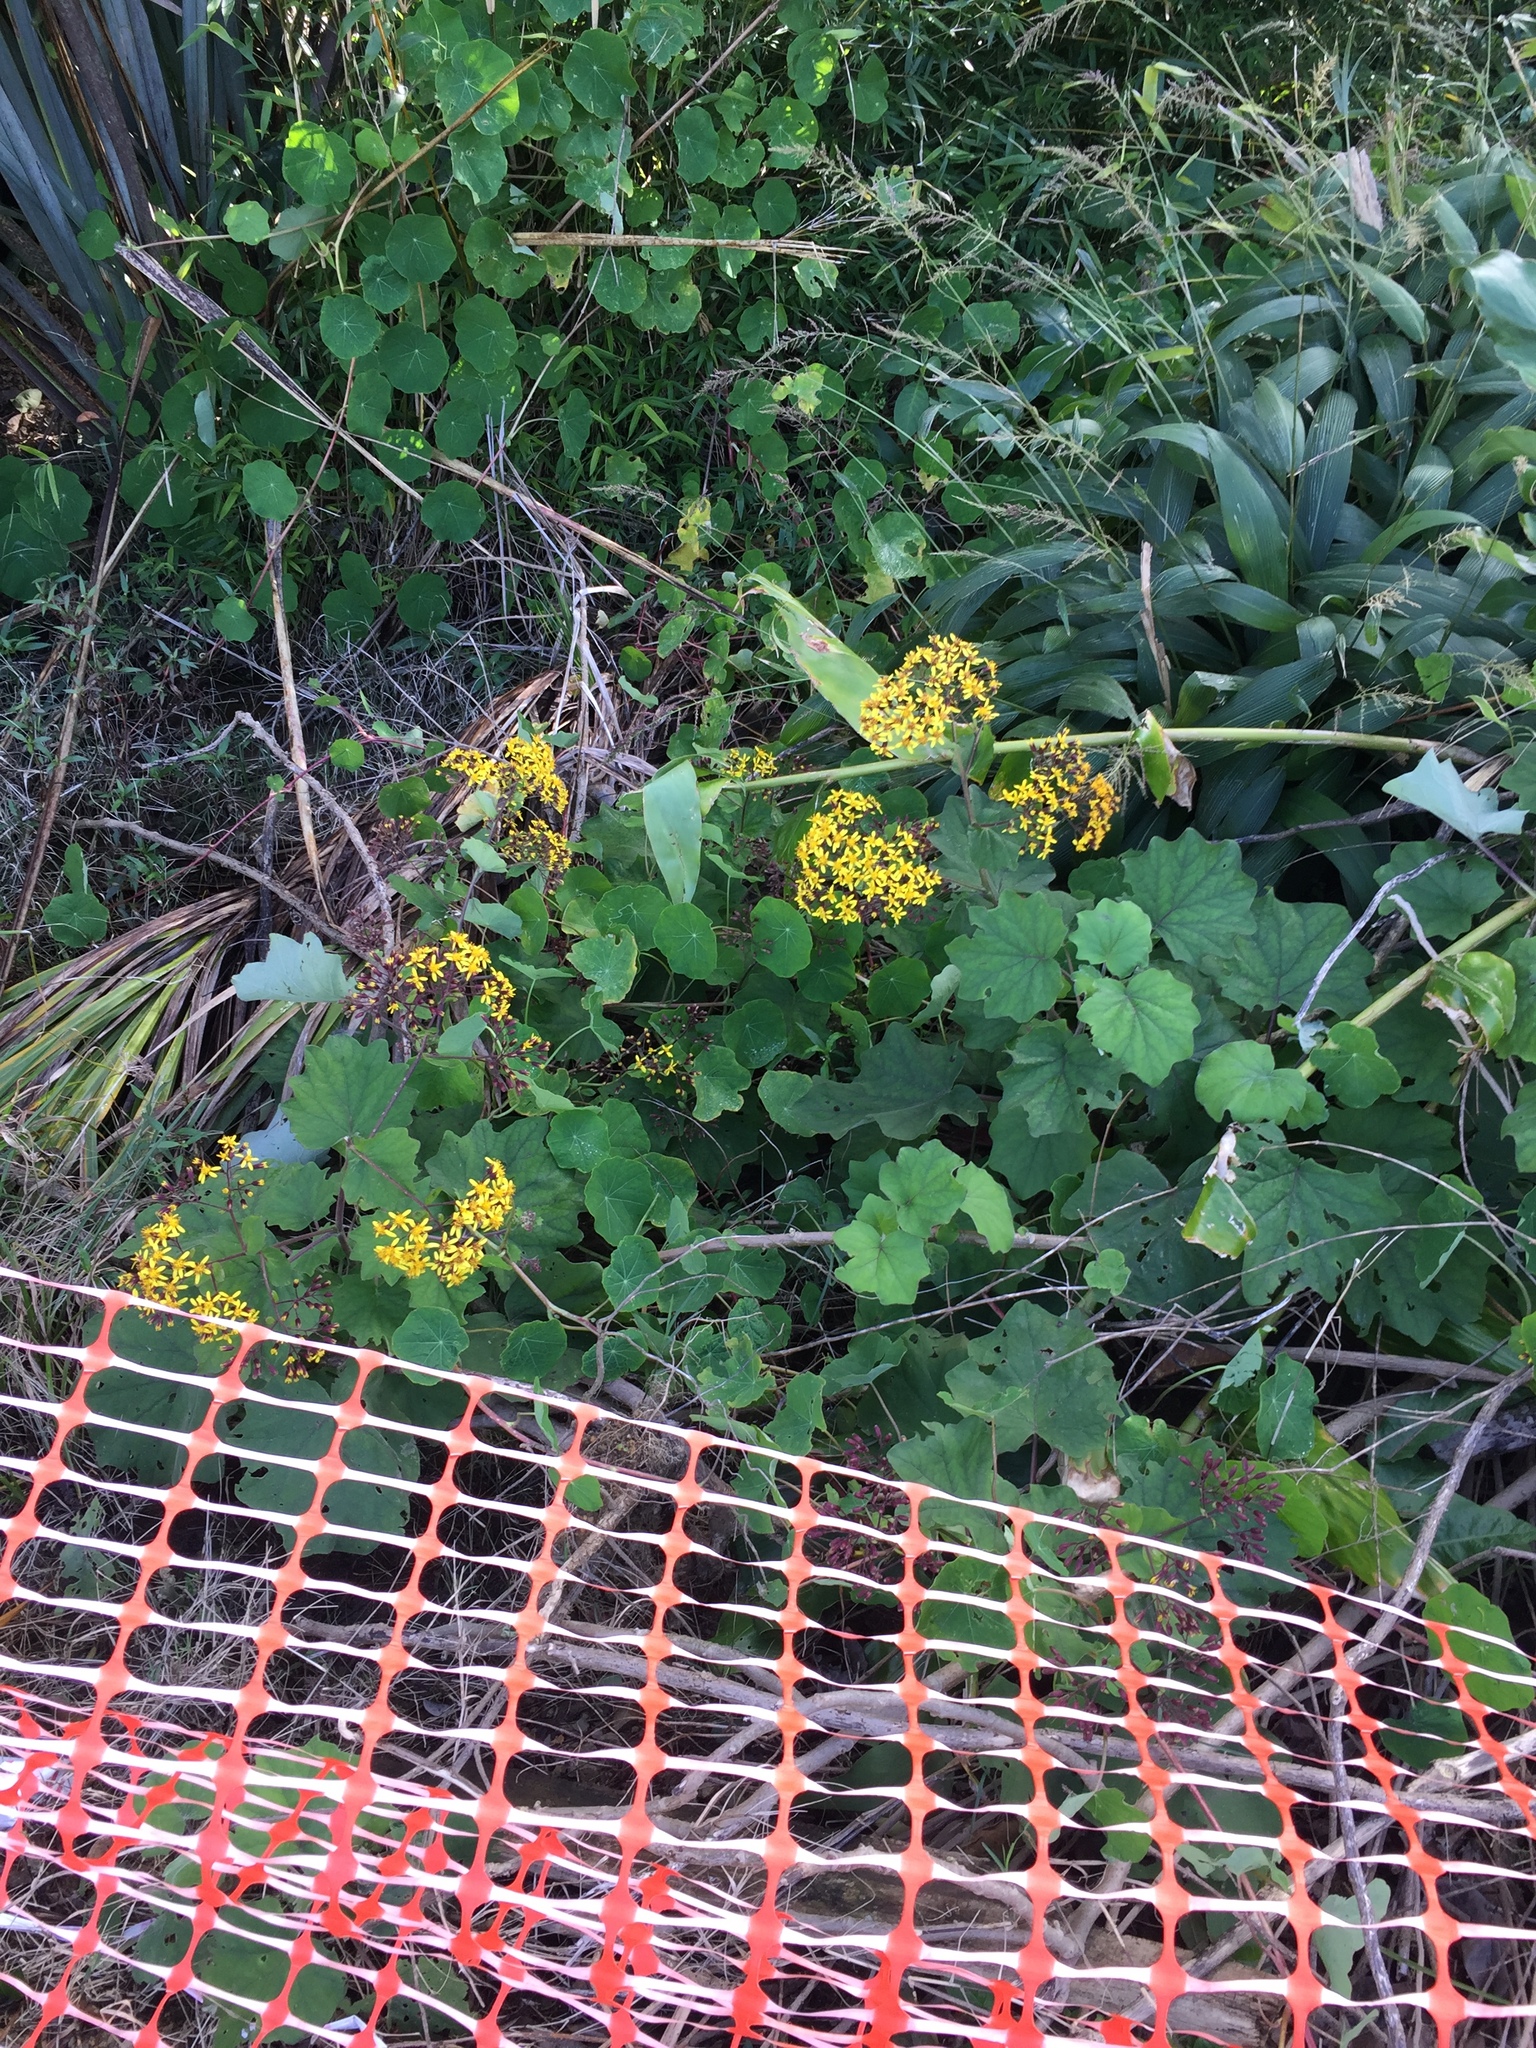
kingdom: Plantae
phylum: Tracheophyta
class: Magnoliopsida
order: Asterales
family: Asteraceae
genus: Roldana
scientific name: Roldana petasitis
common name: California-geranium
